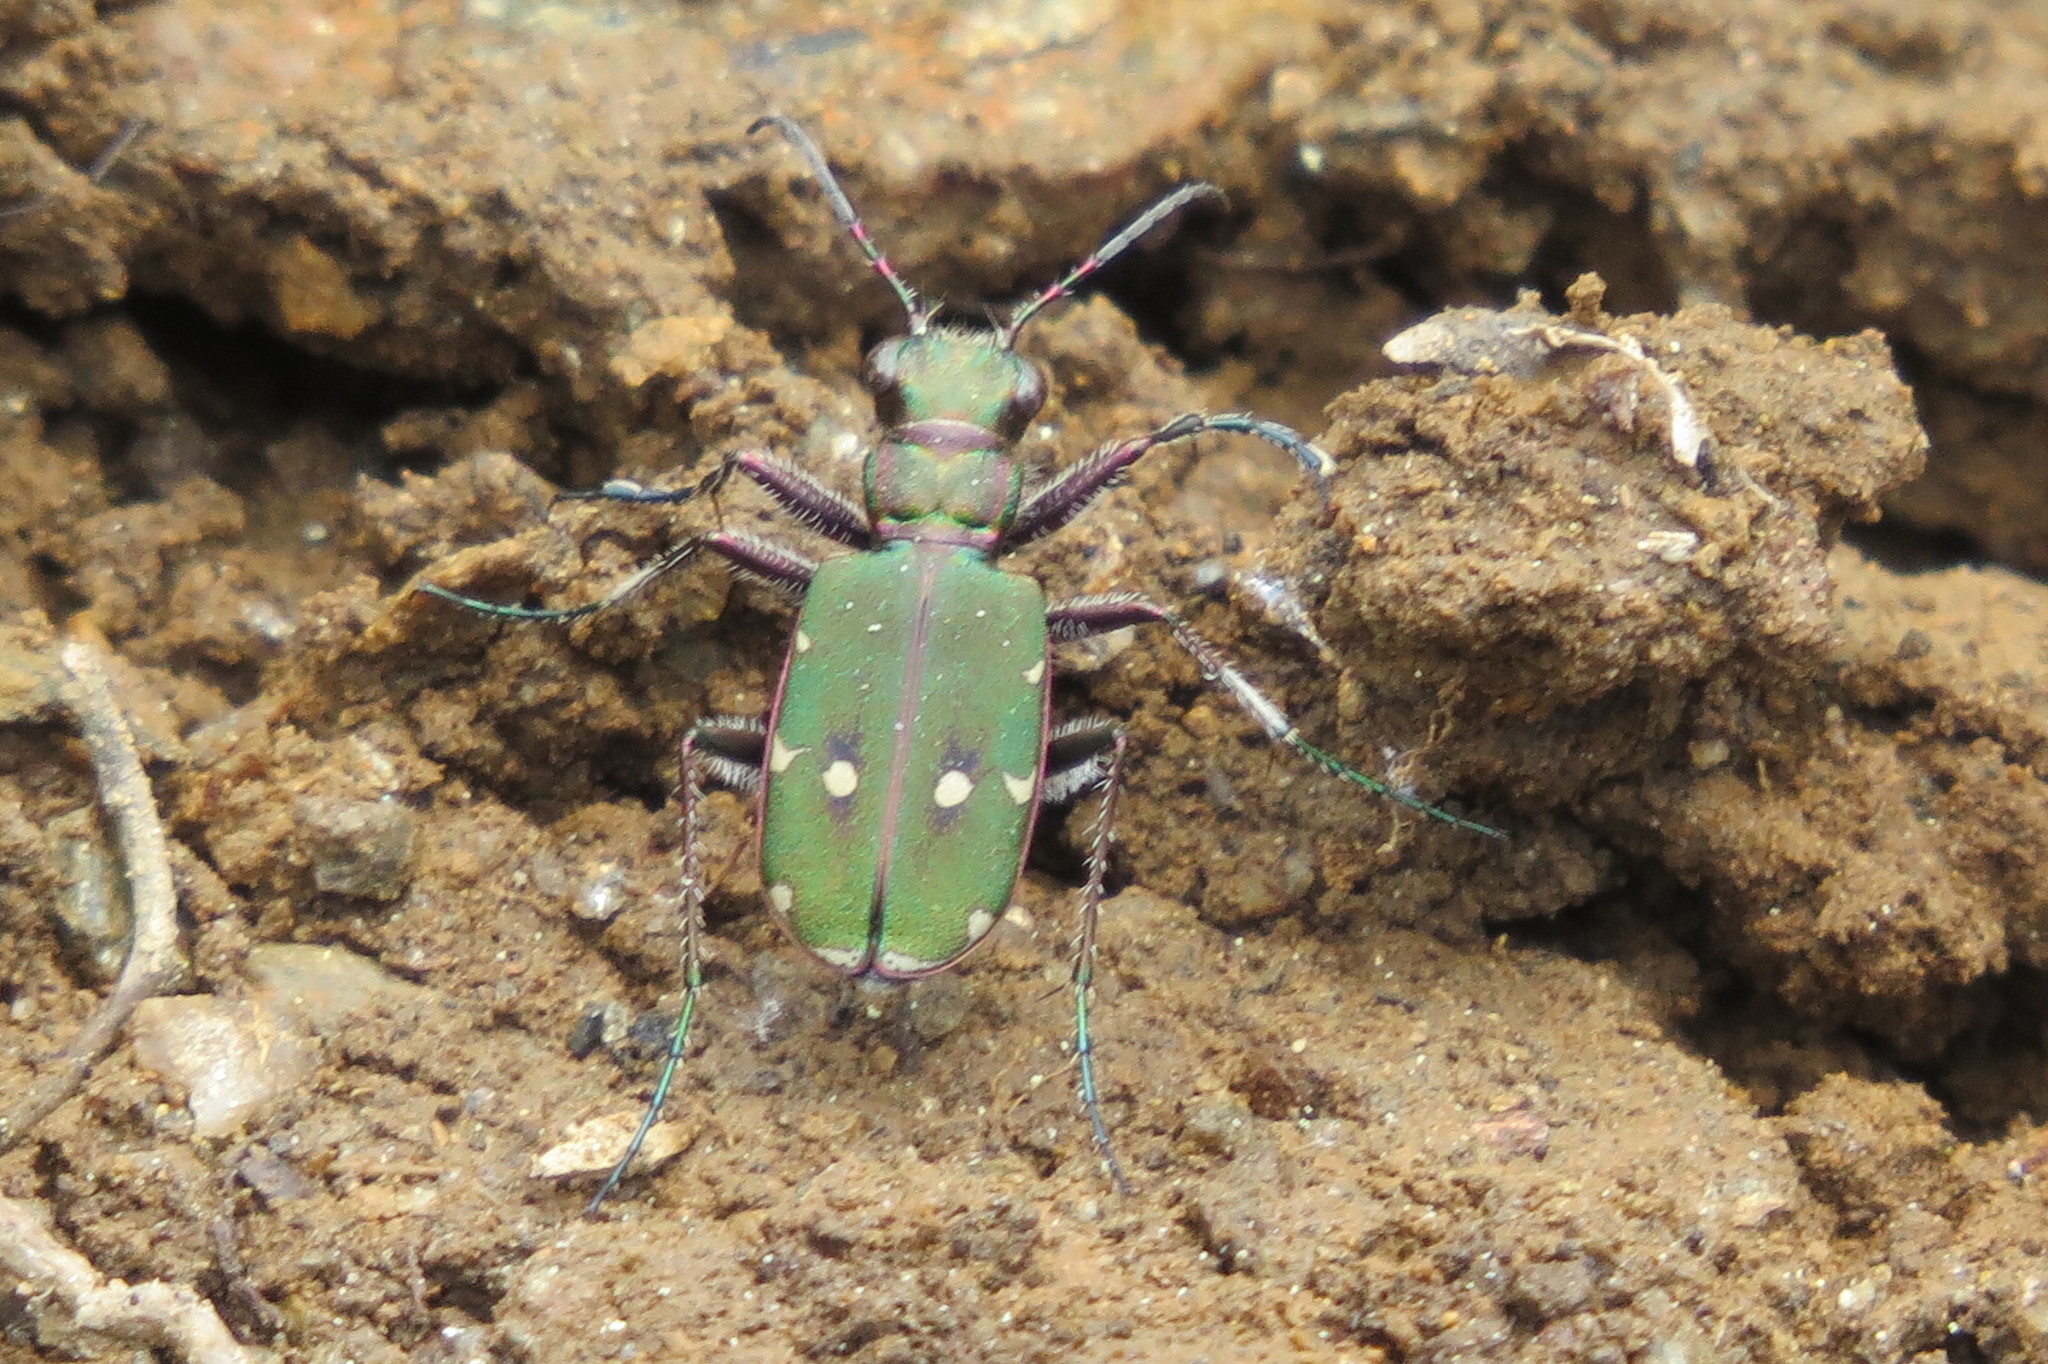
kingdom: Animalia
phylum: Arthropoda
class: Insecta
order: Coleoptera
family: Carabidae
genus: Cicindela
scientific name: Cicindela campestris
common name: Common tiger beetle
